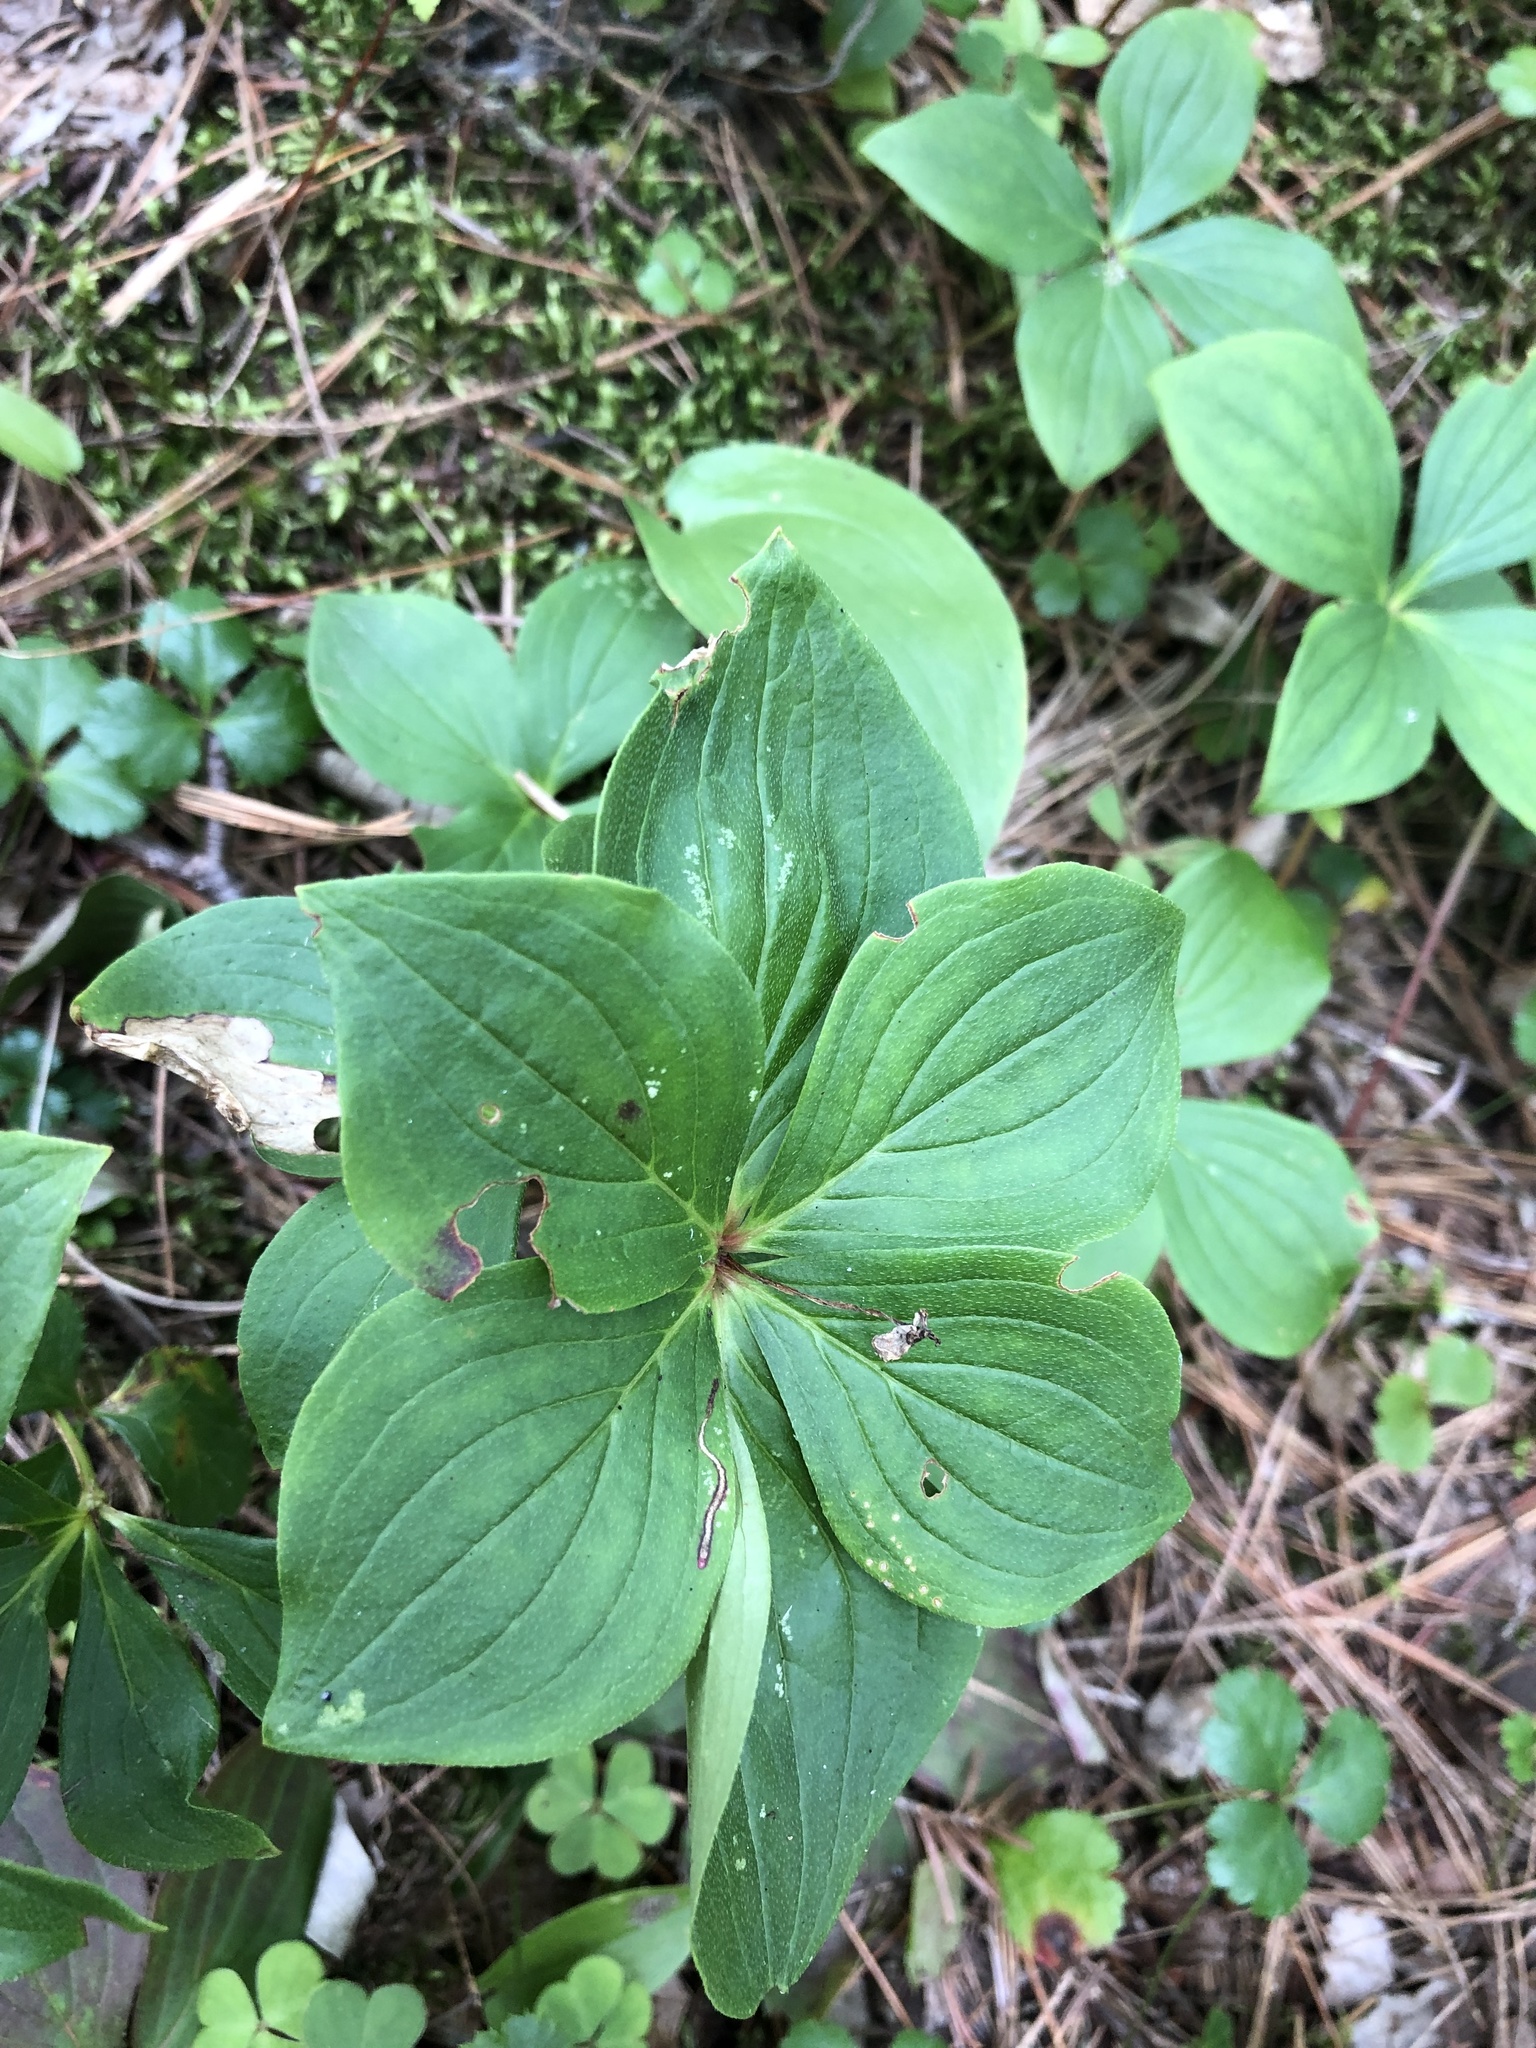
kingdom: Plantae
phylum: Tracheophyta
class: Magnoliopsida
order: Cornales
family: Cornaceae
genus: Cornus
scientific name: Cornus canadensis
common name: Creeping dogwood
